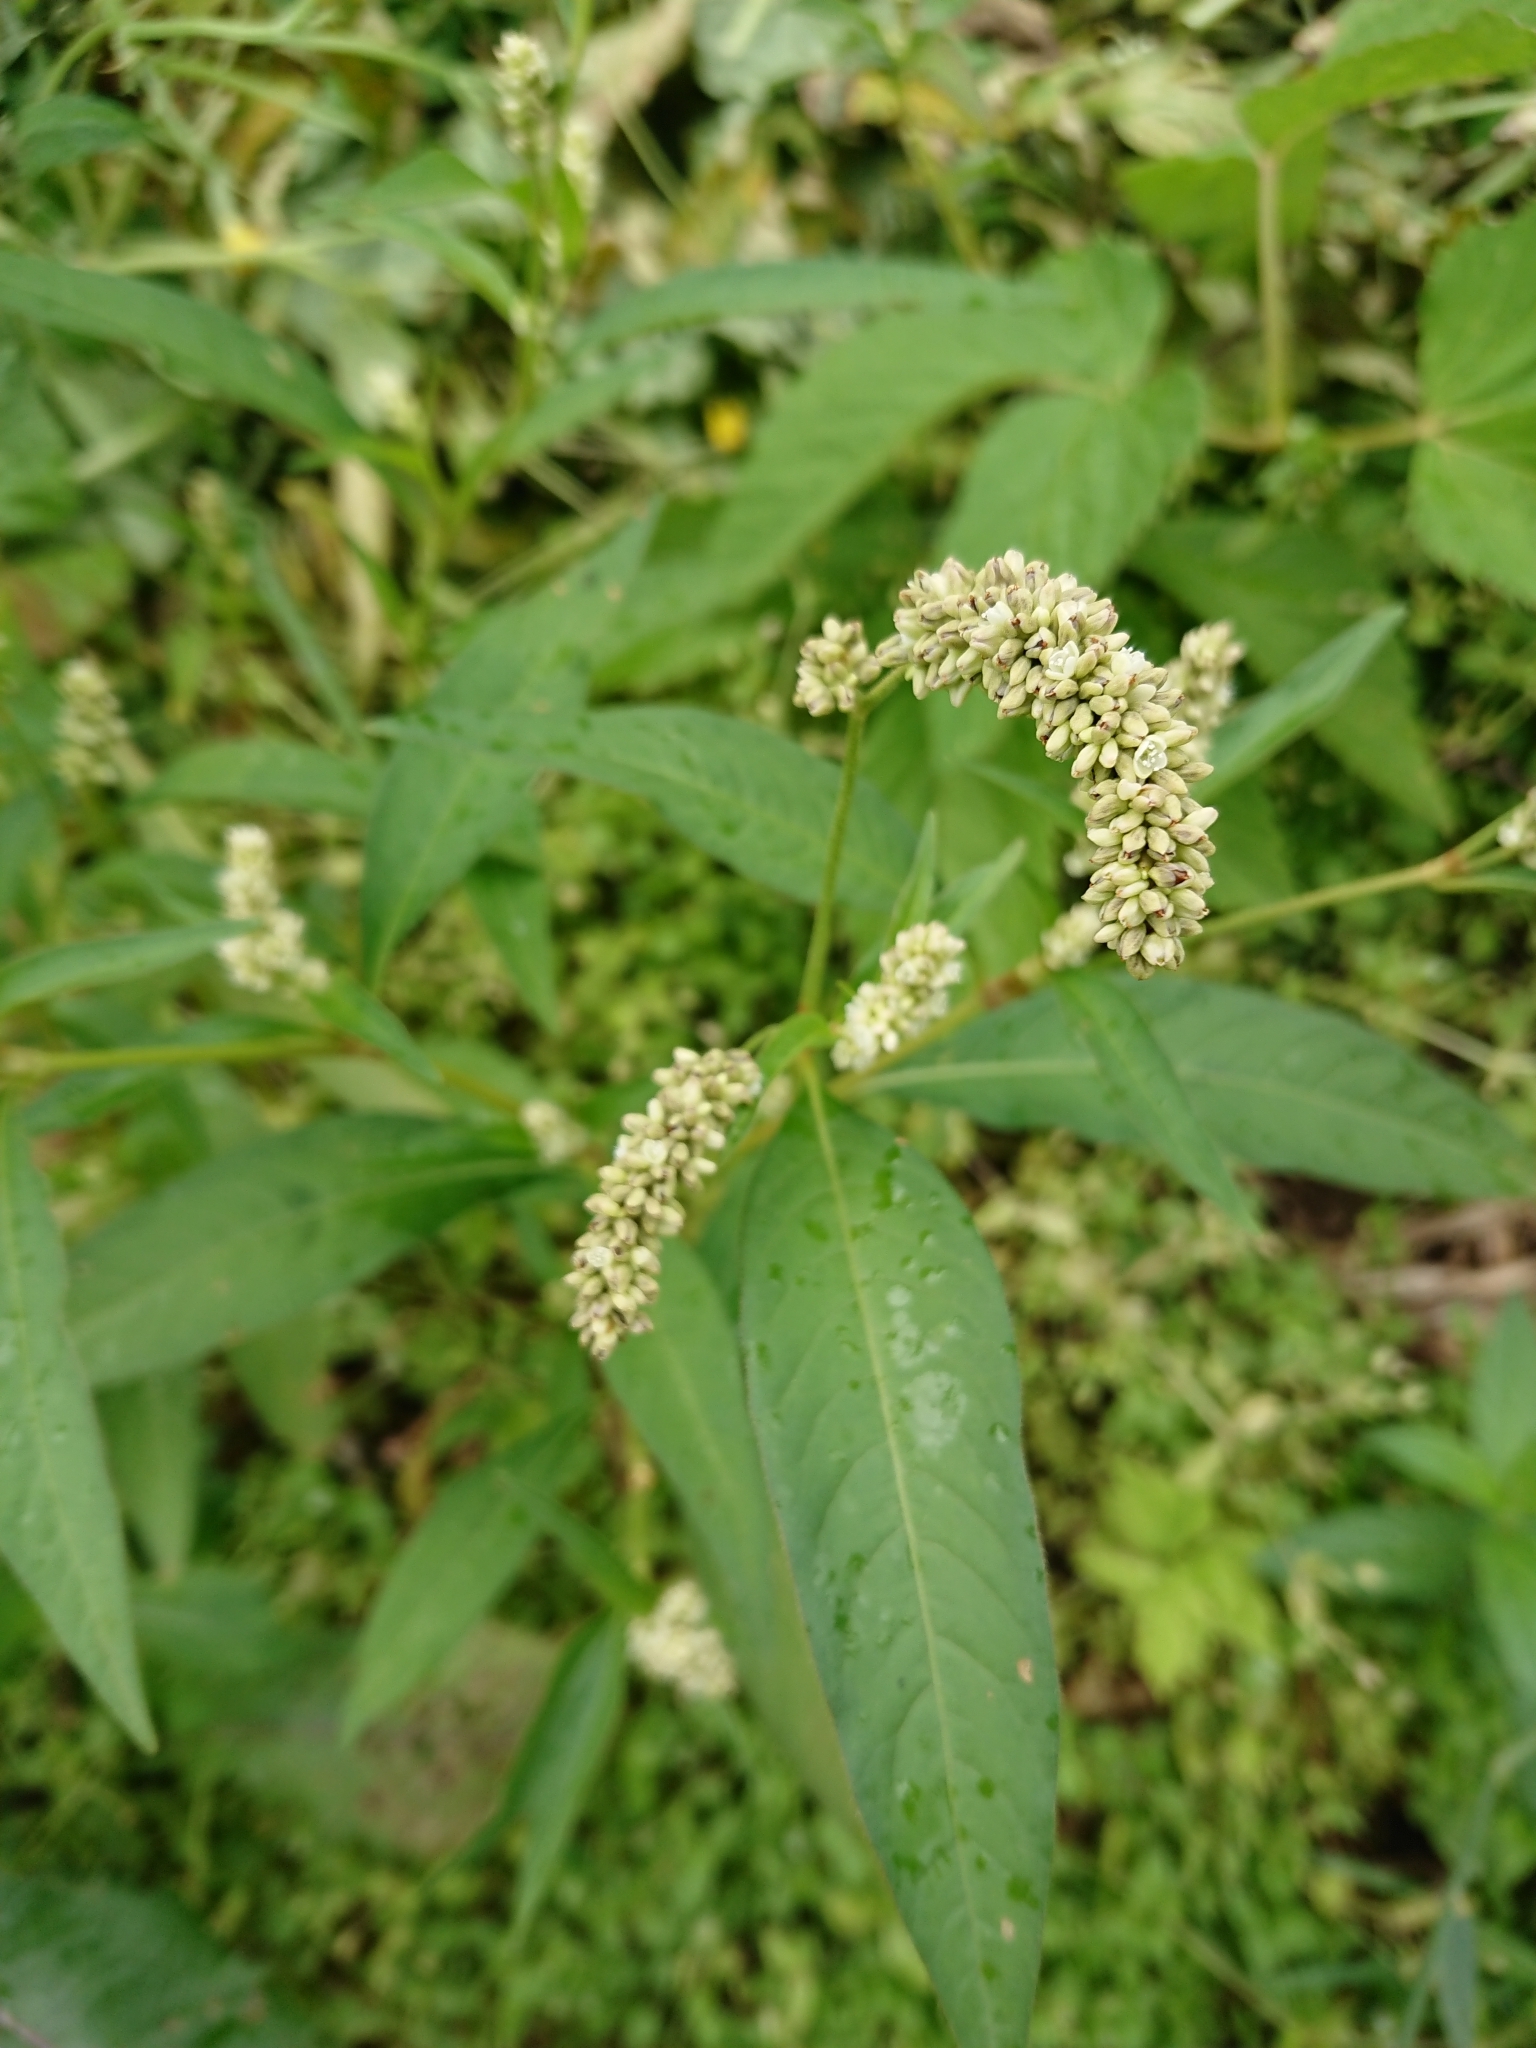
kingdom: Plantae
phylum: Tracheophyta
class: Magnoliopsida
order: Caryophyllales
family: Polygonaceae
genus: Persicaria
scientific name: Persicaria lapathifolia
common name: Curlytop knotweed
